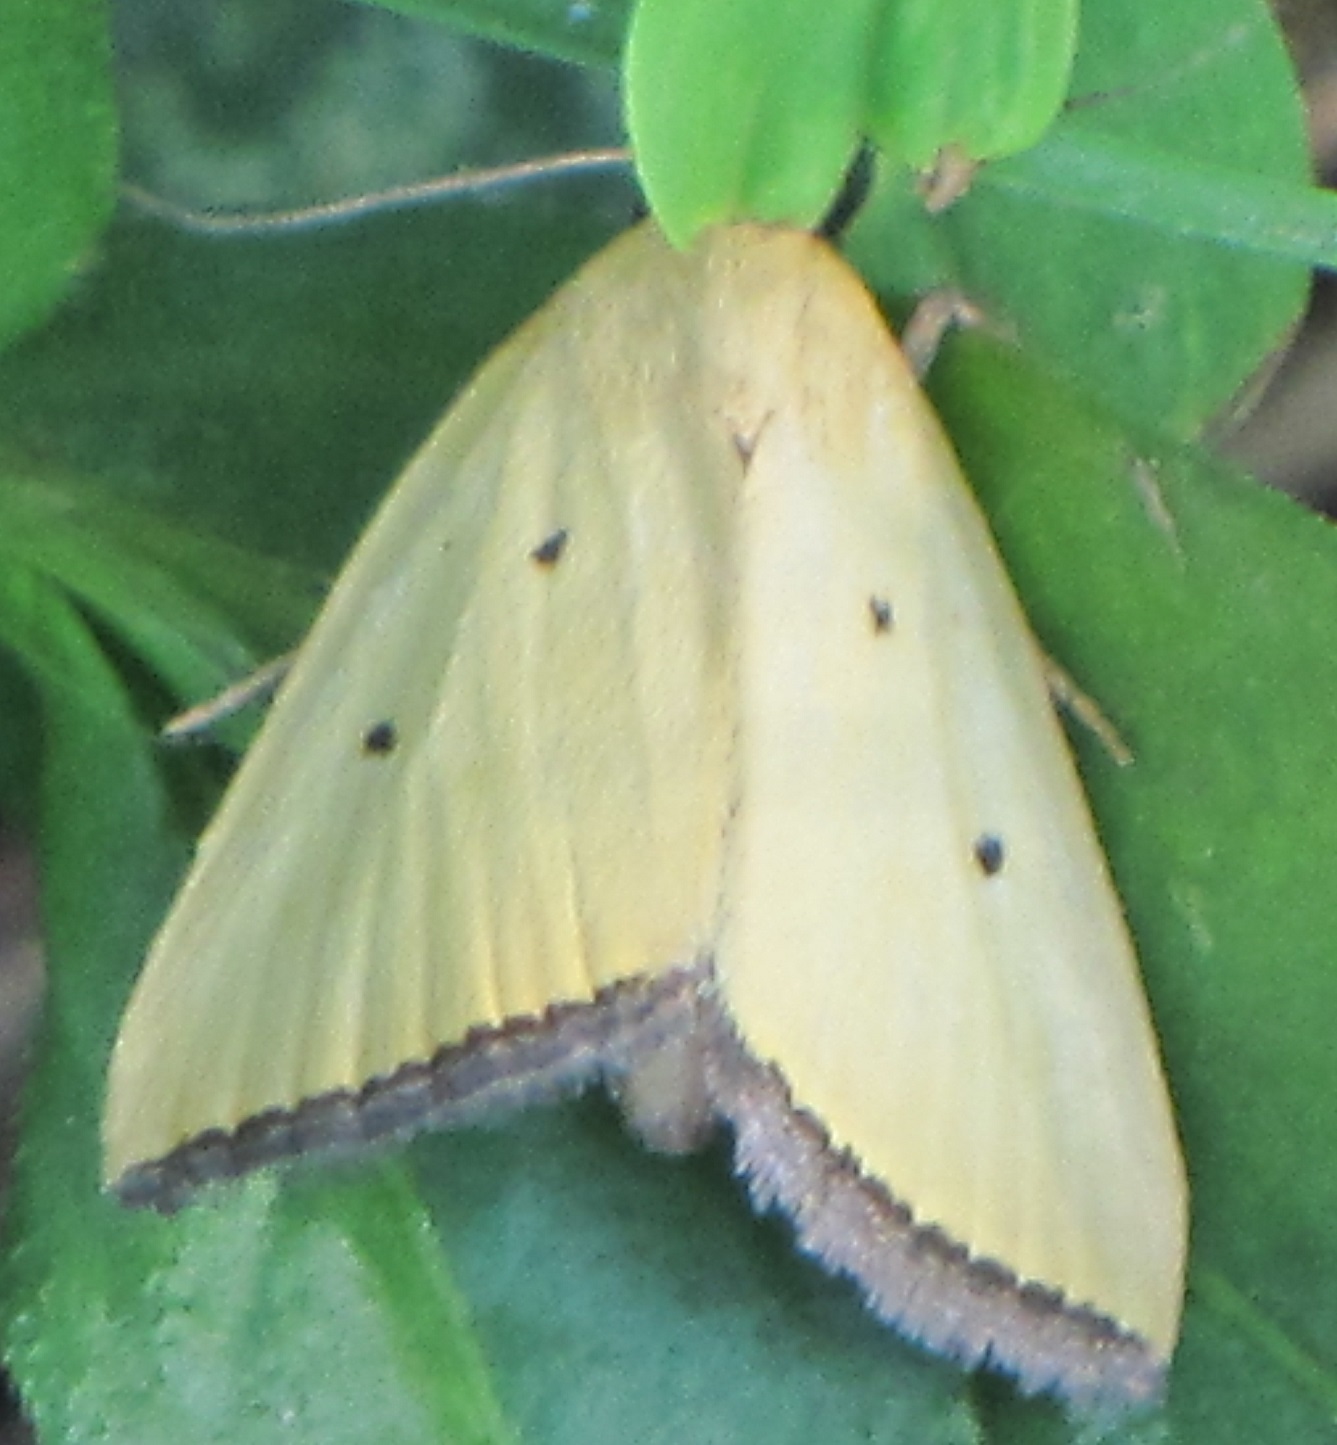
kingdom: Animalia
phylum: Arthropoda
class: Insecta
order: Lepidoptera
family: Noctuidae
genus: Marimatha
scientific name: Marimatha nigrofimbria
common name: Black-bordered lemon moth
